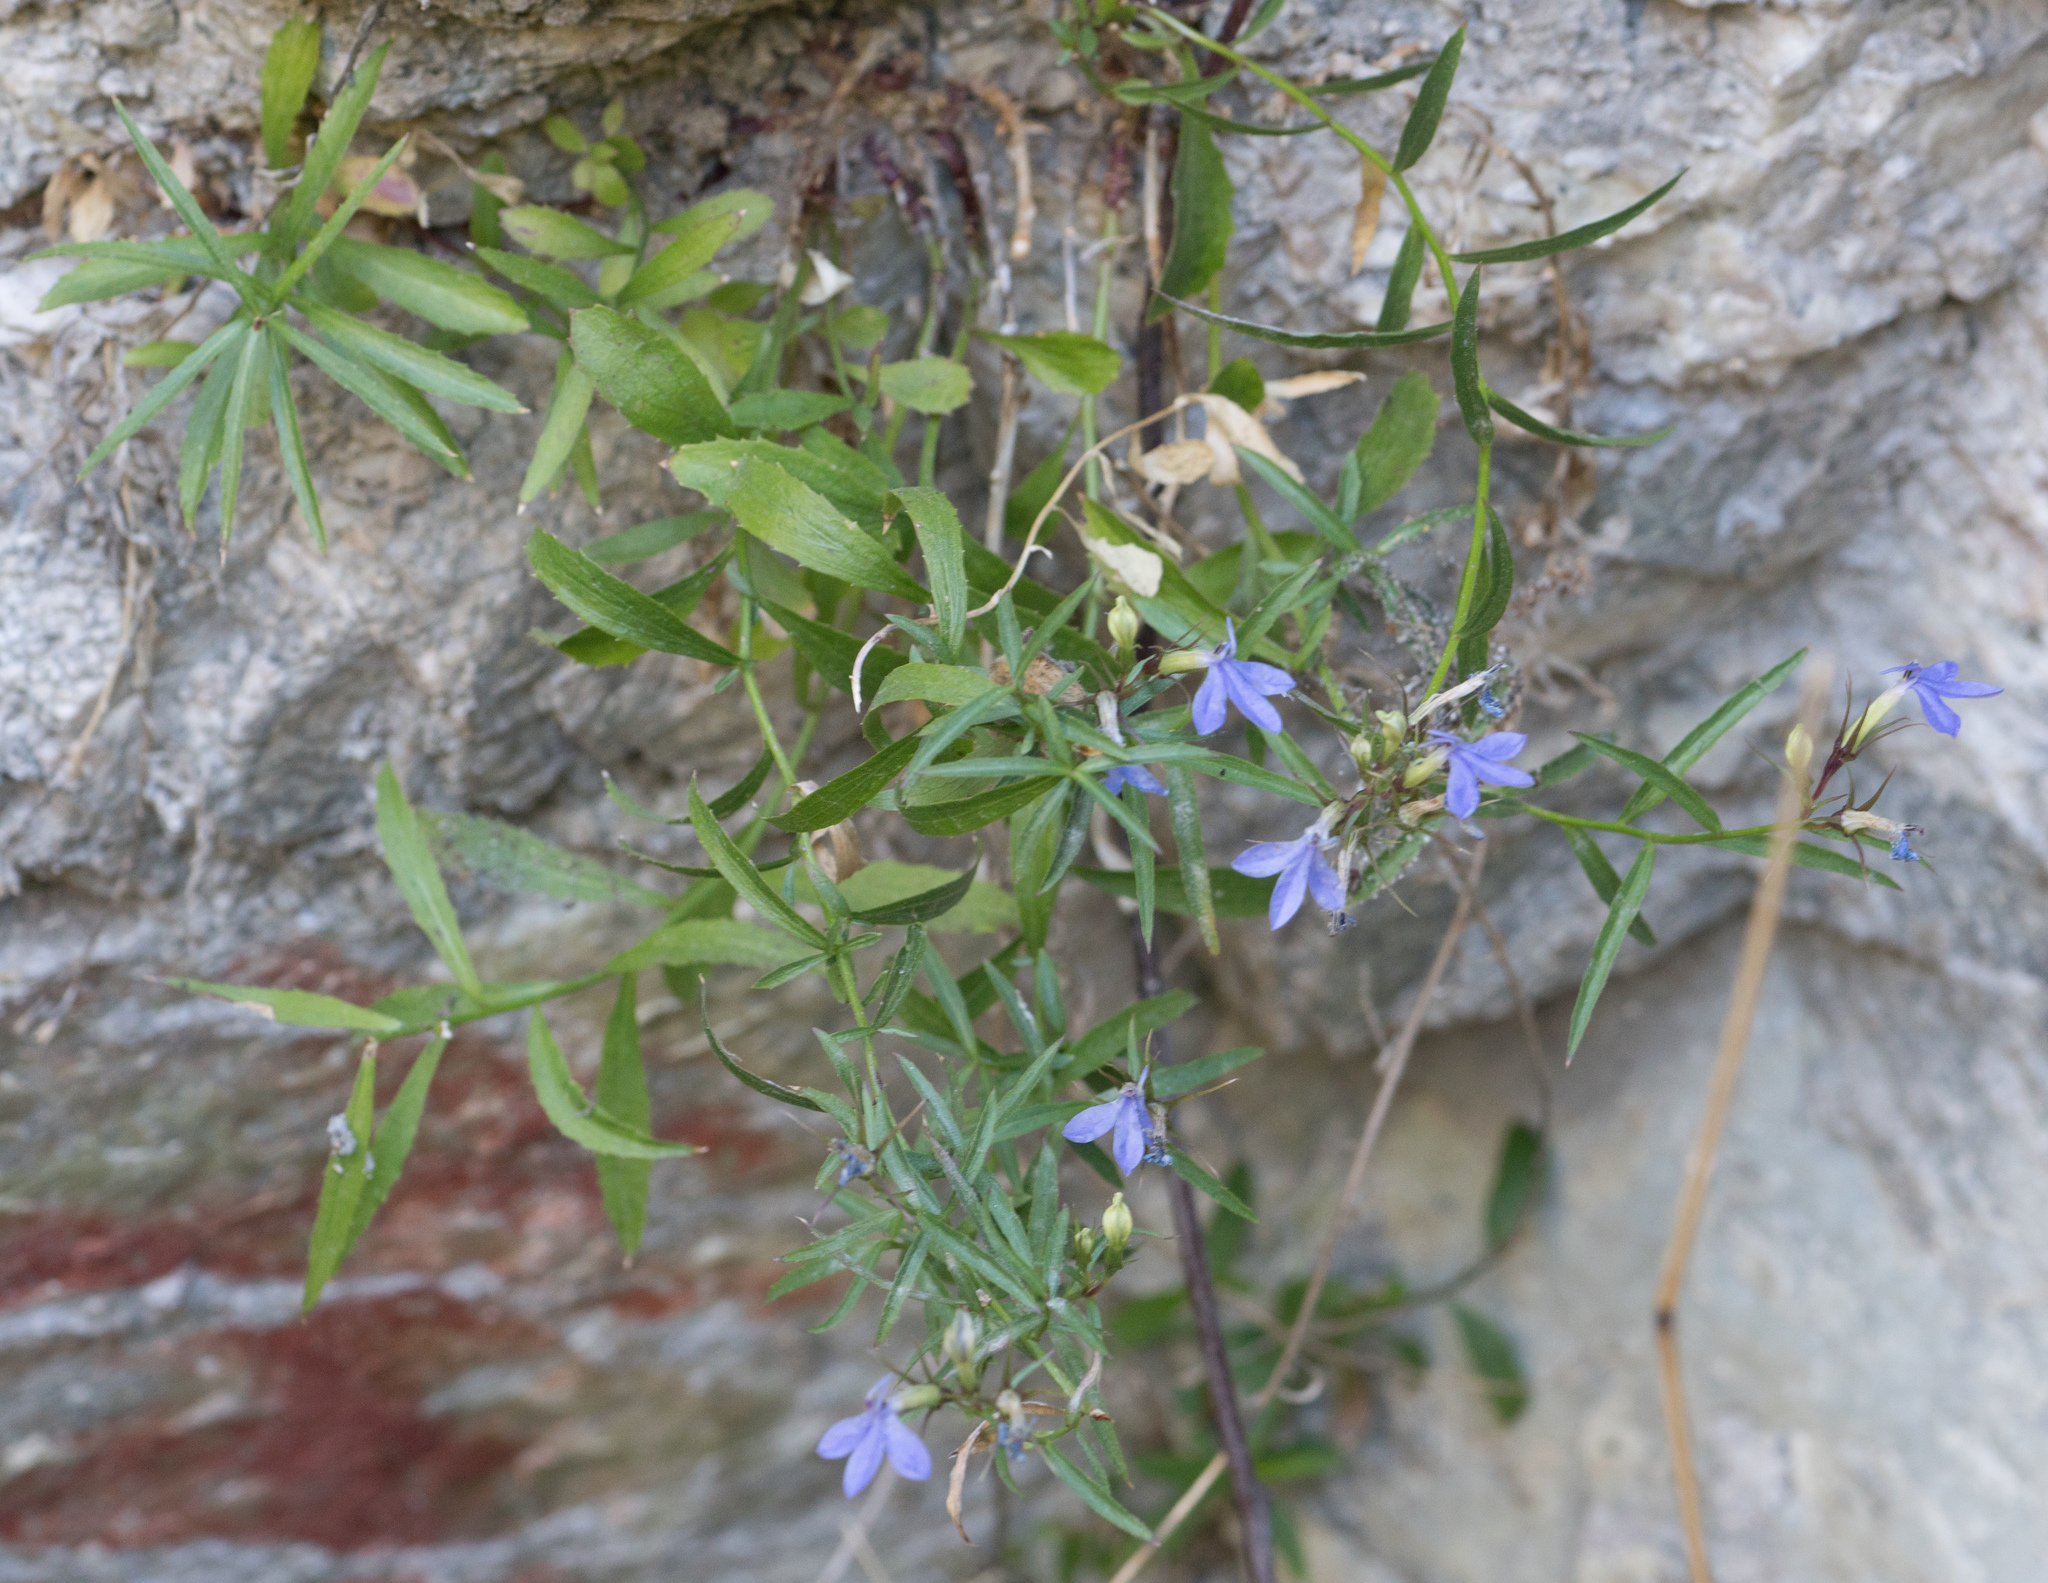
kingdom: Plantae
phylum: Tracheophyta
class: Magnoliopsida
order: Asterales
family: Campanulaceae
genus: Palmerella
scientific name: Palmerella debilis
